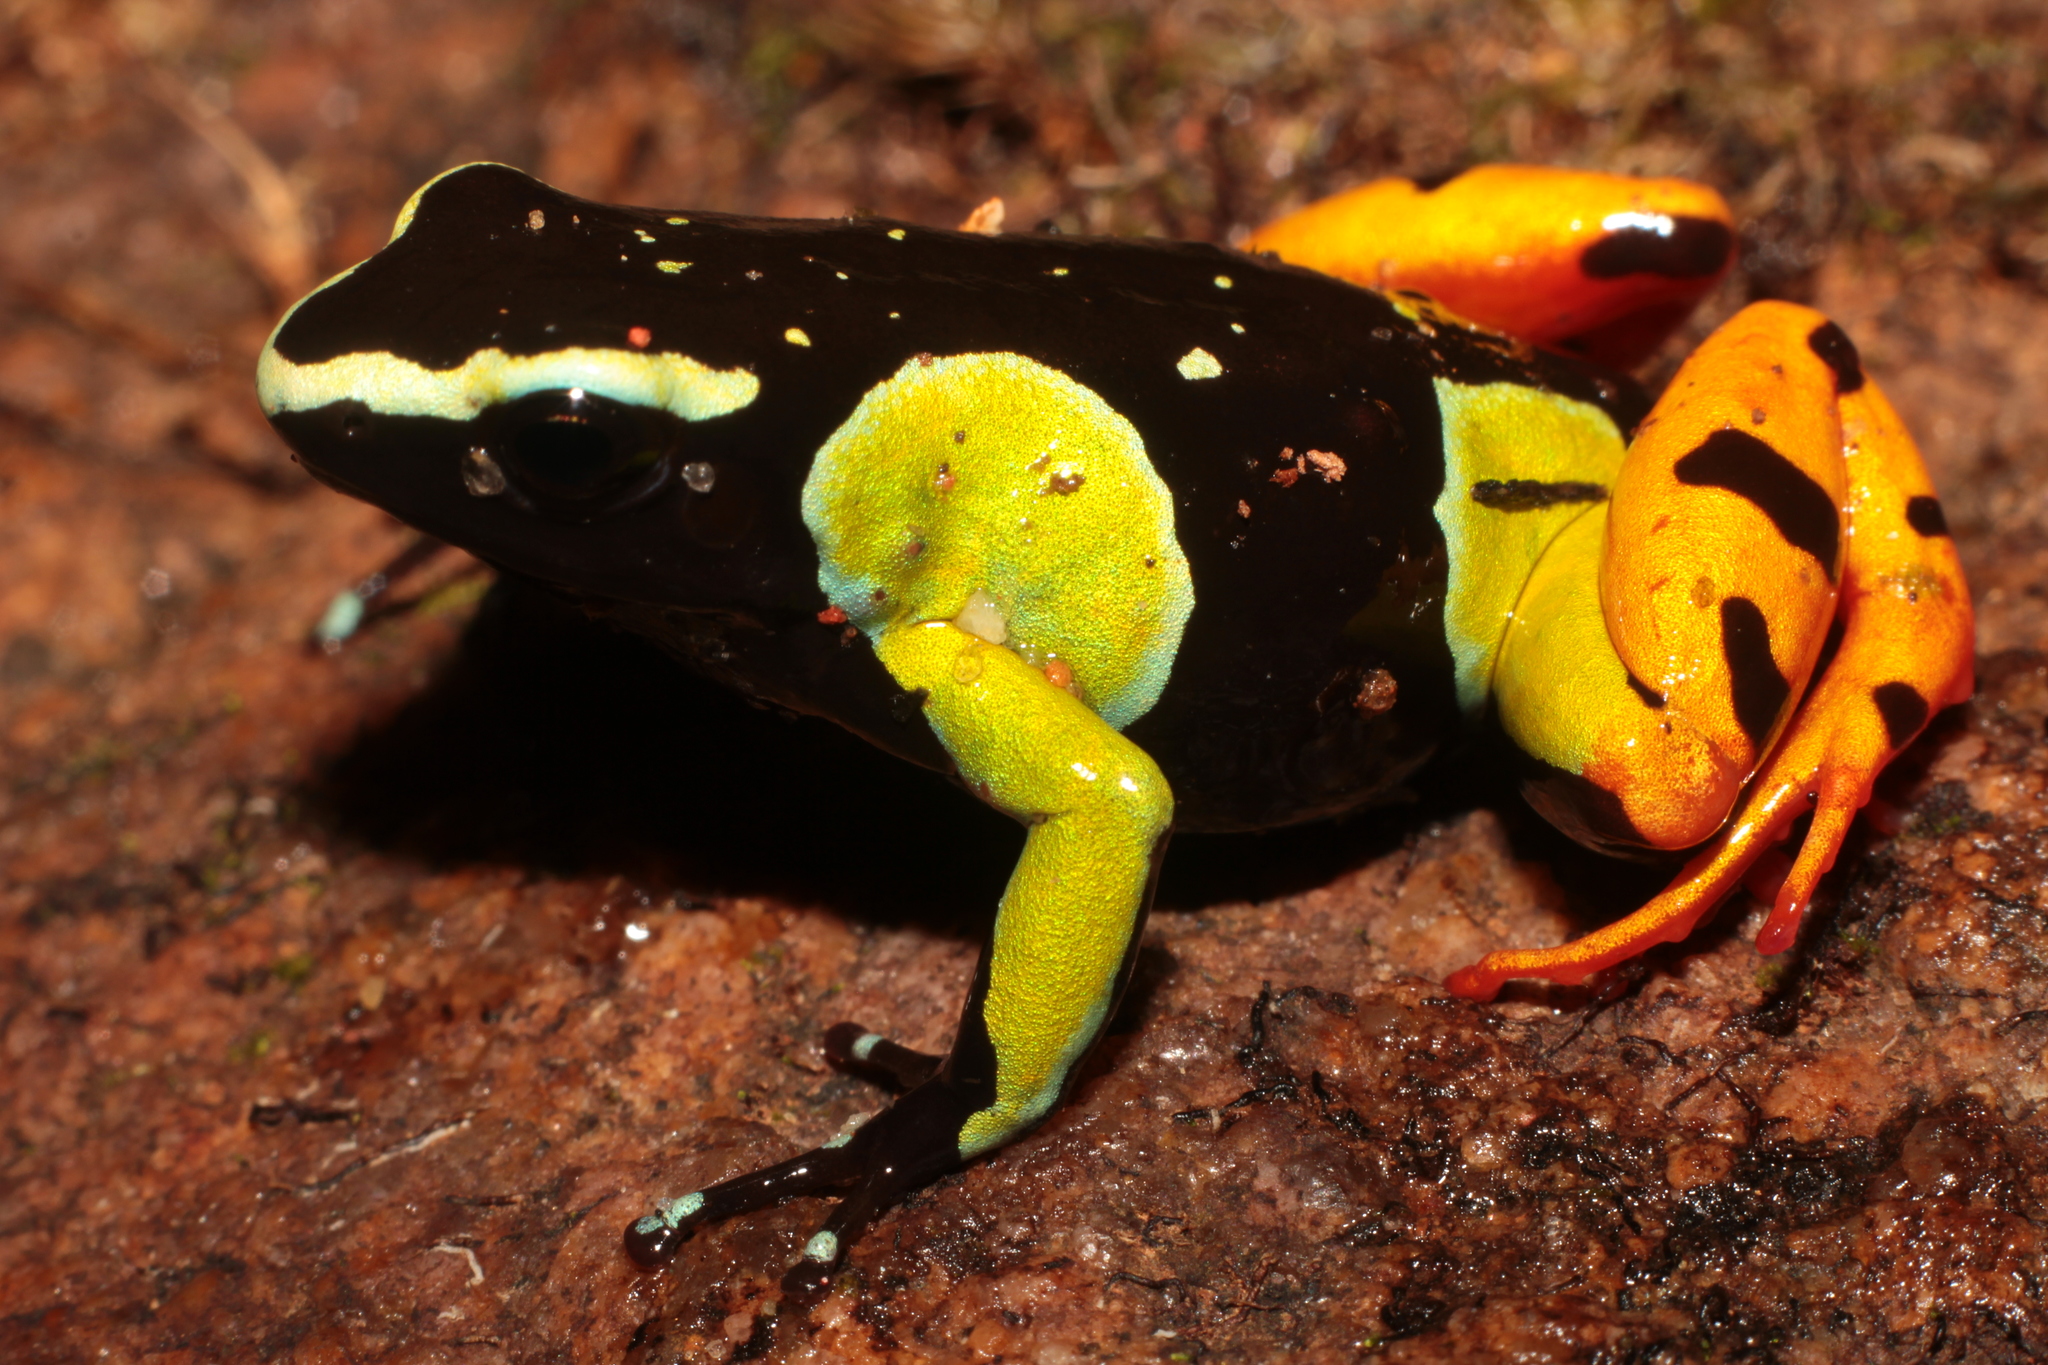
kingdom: Animalia
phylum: Chordata
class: Amphibia
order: Anura
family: Mantellidae
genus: Mantella
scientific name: Mantella baroni
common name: Baron's mantella
